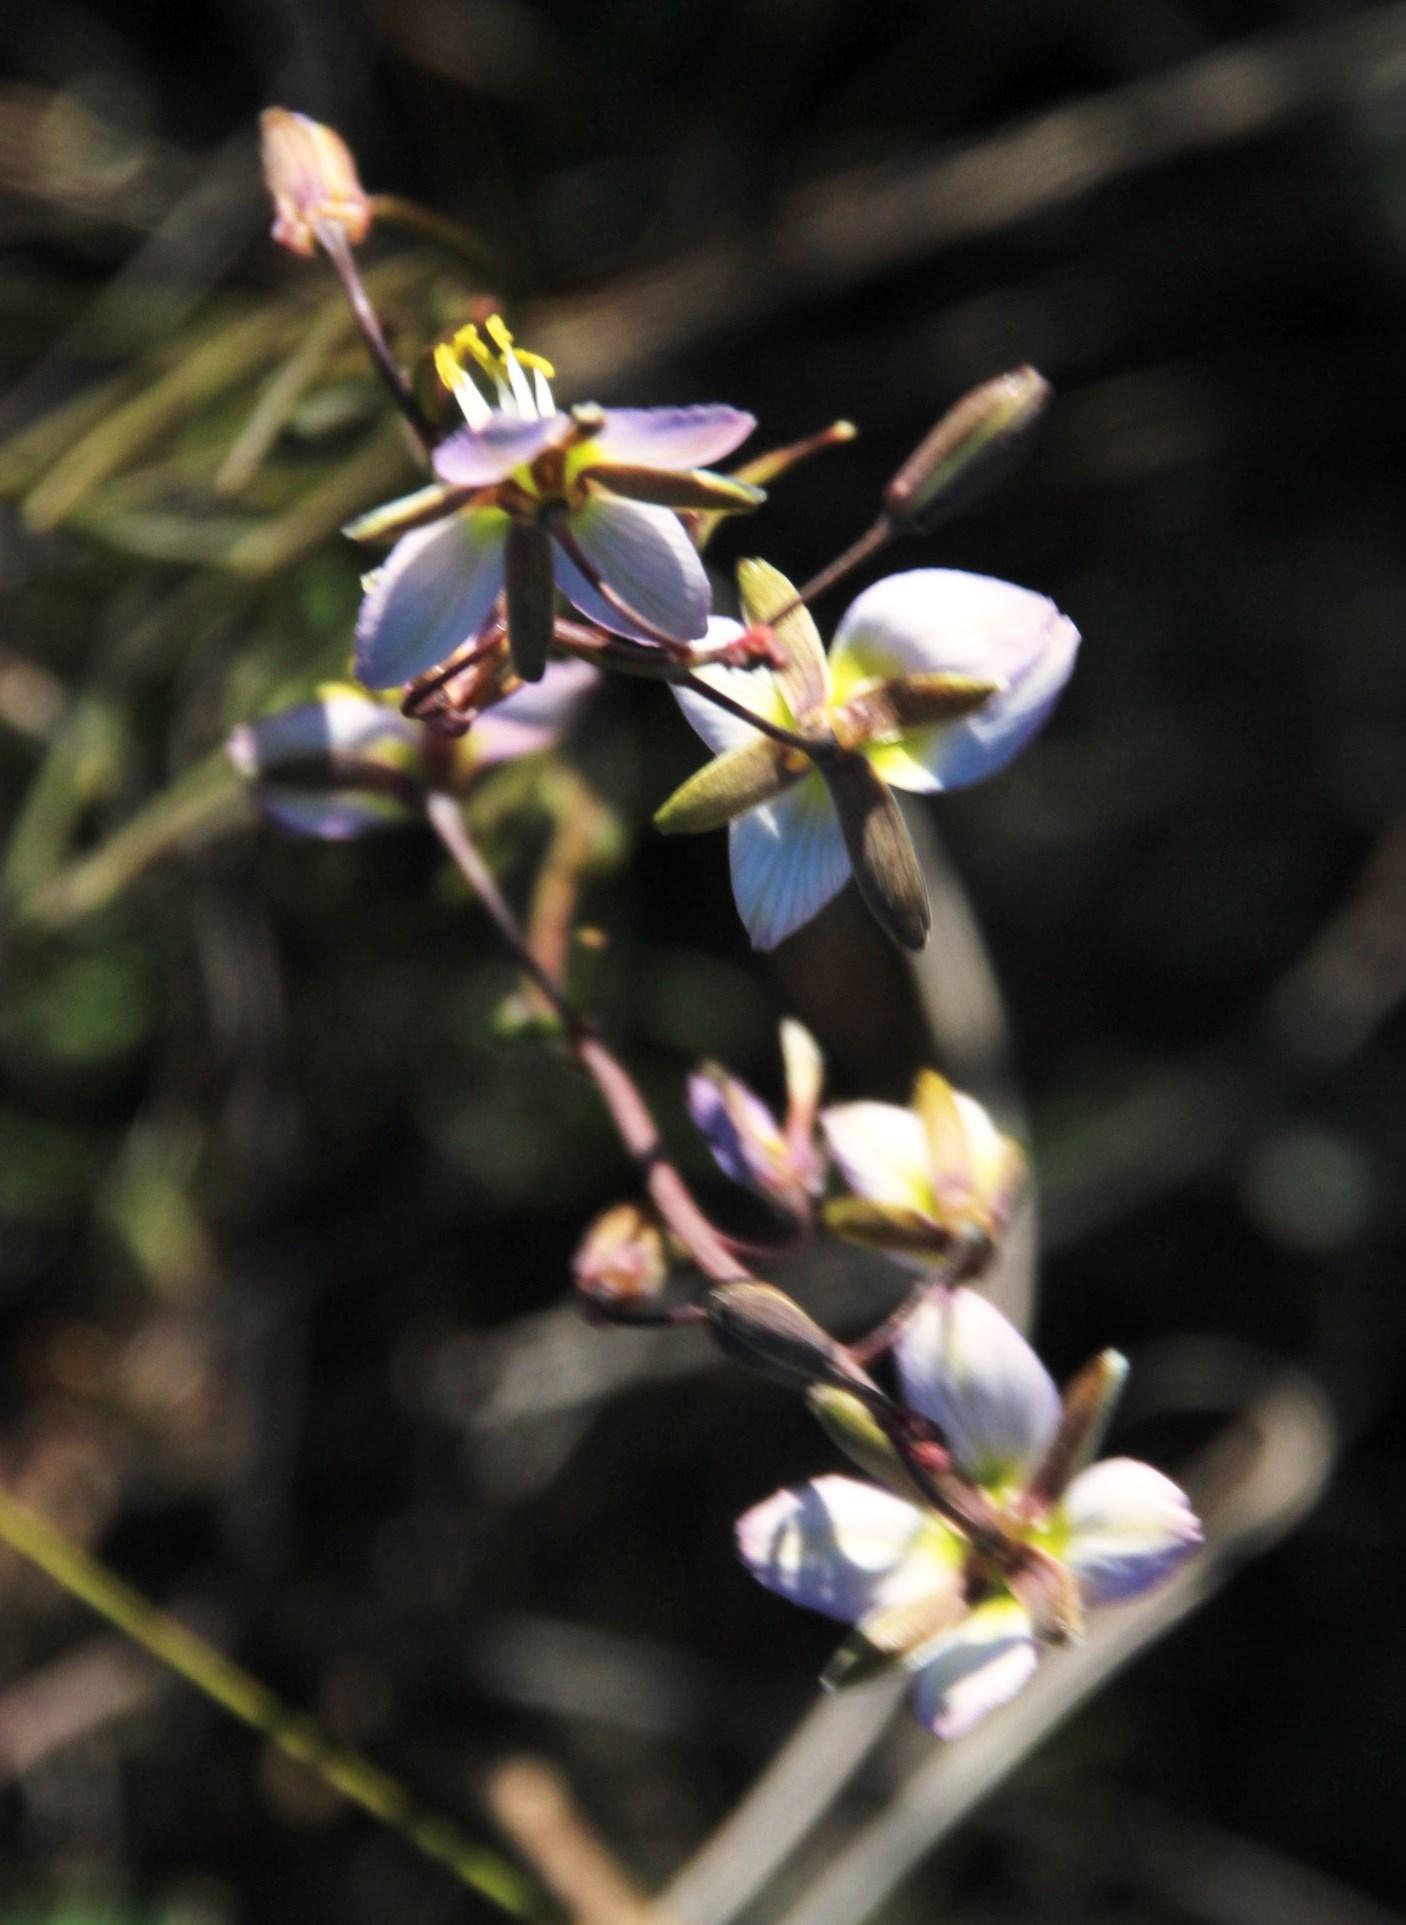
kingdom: Plantae
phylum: Tracheophyta
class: Magnoliopsida
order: Brassicales
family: Brassicaceae
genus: Heliophila
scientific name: Heliophila cornuta
